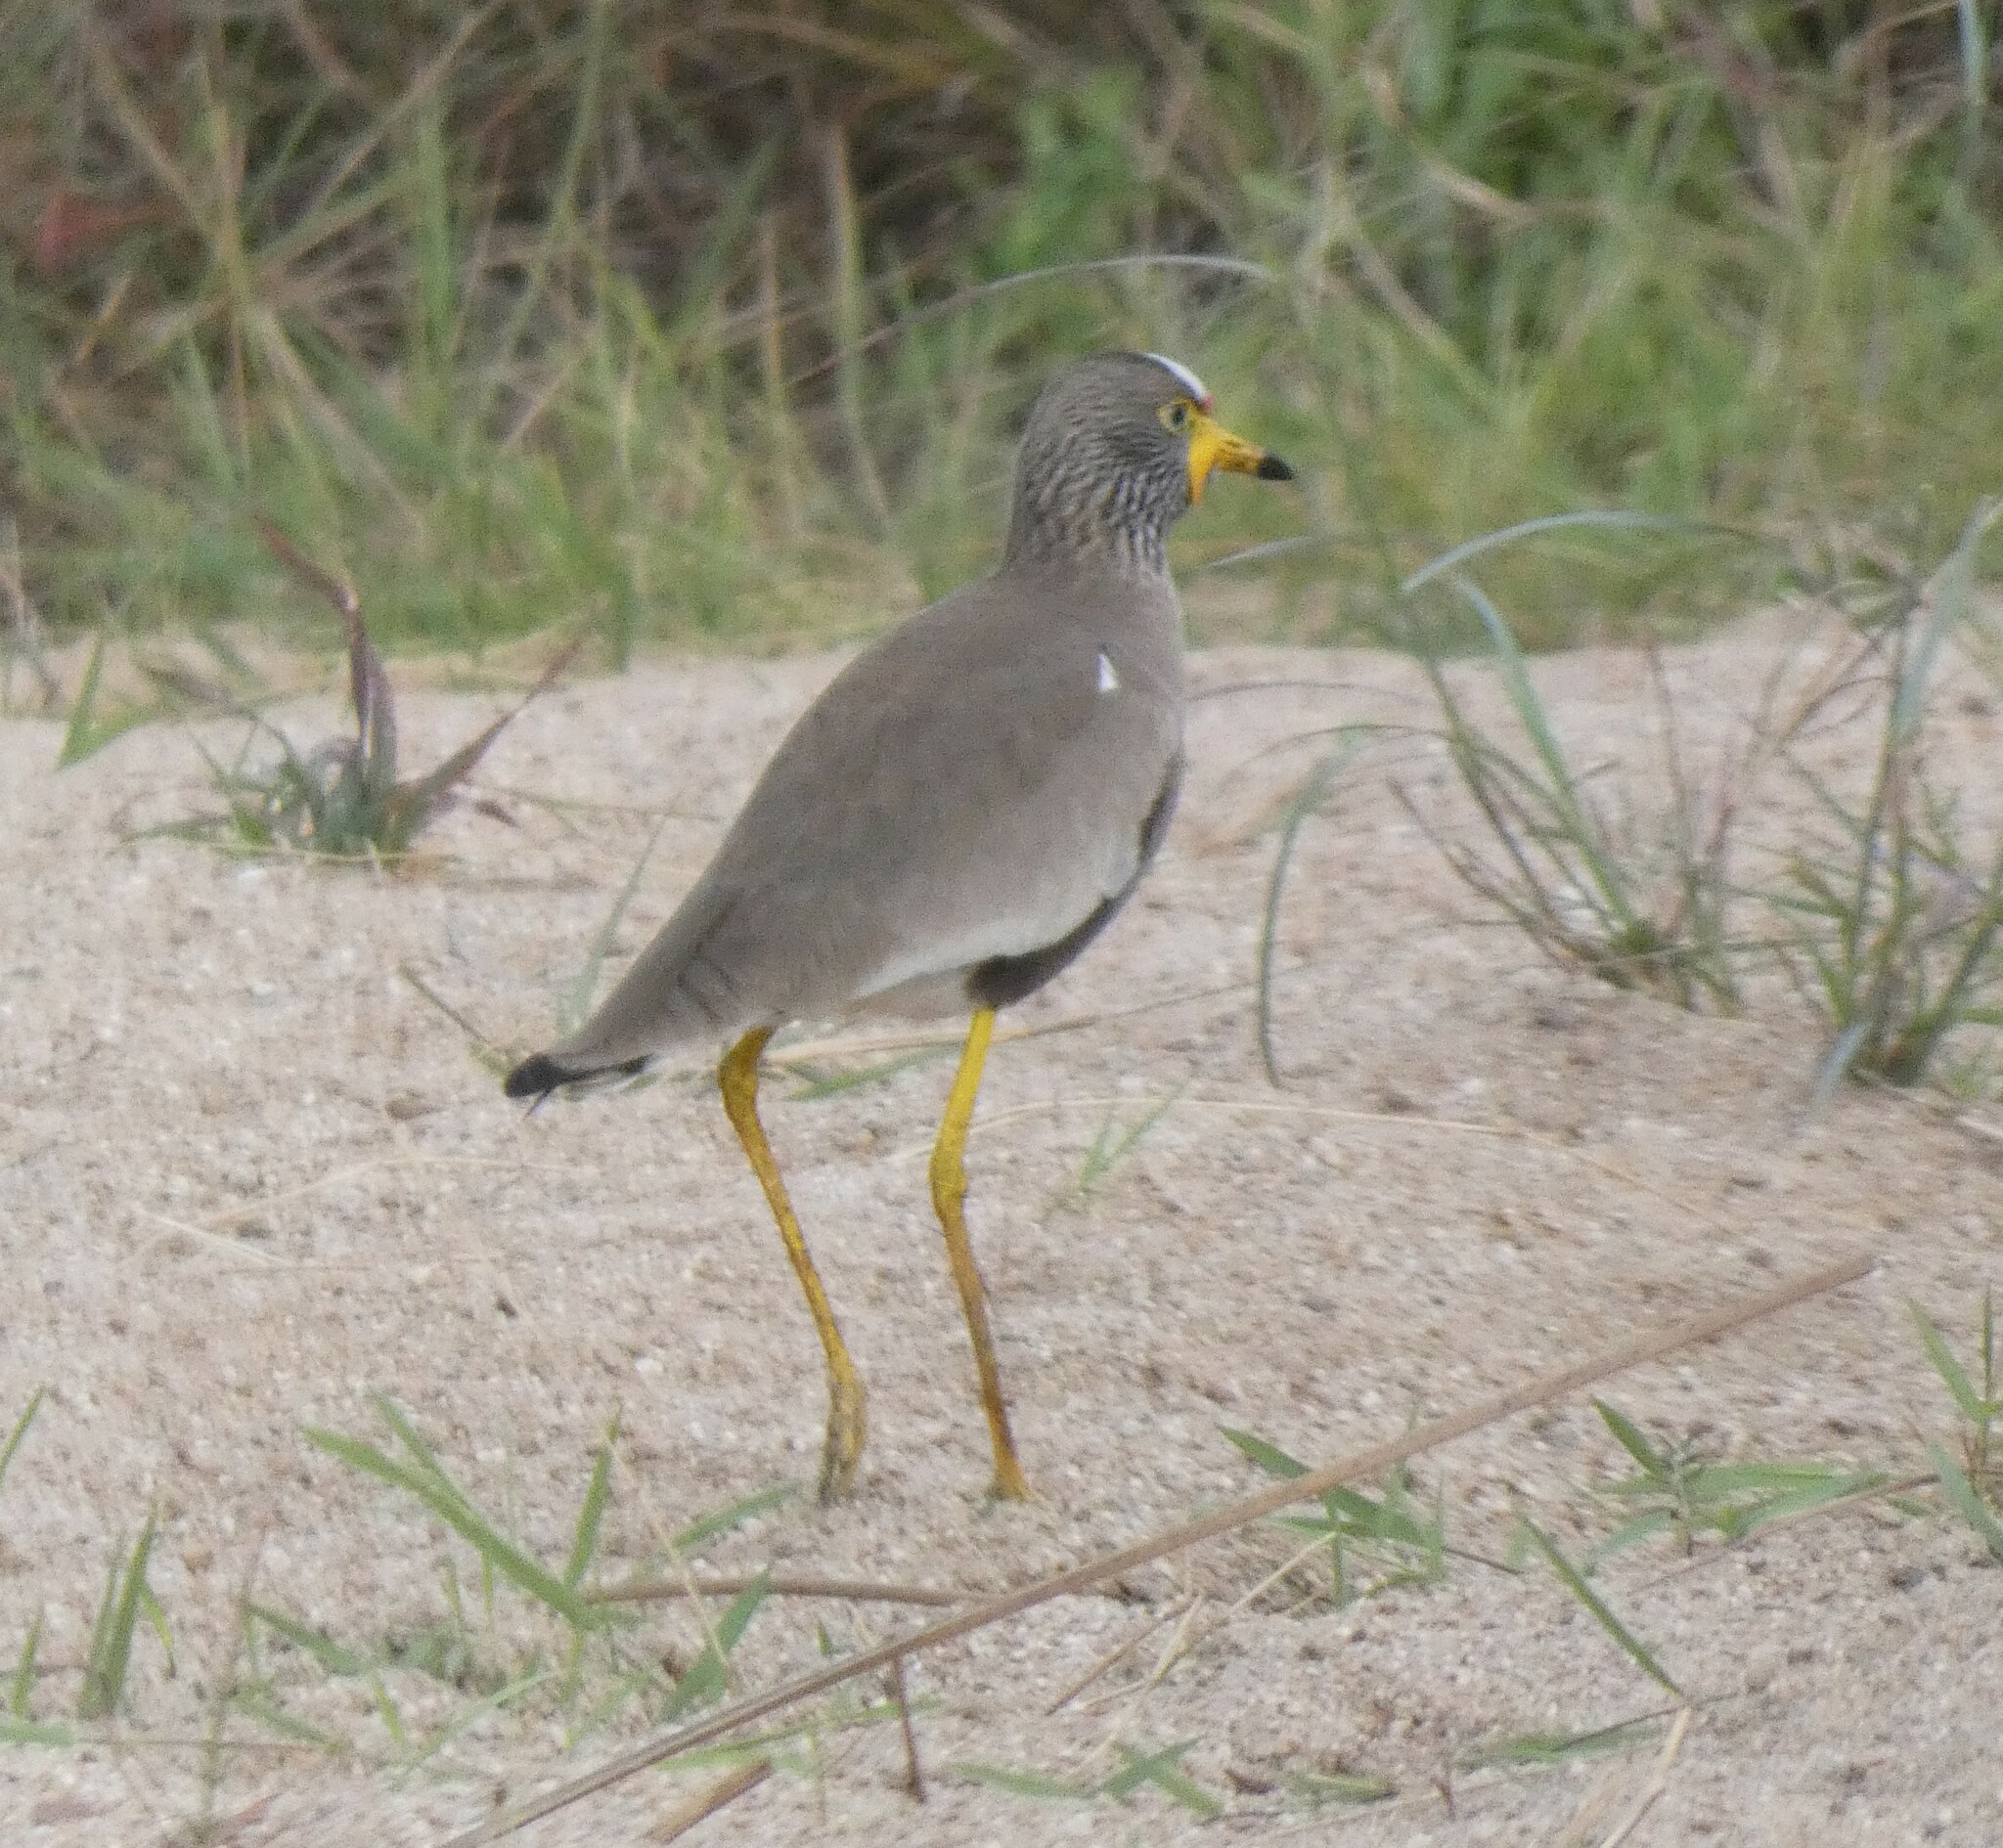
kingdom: Animalia
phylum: Chordata
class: Aves
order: Charadriiformes
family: Charadriidae
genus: Vanellus
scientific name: Vanellus senegallus
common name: African wattled lapwing
